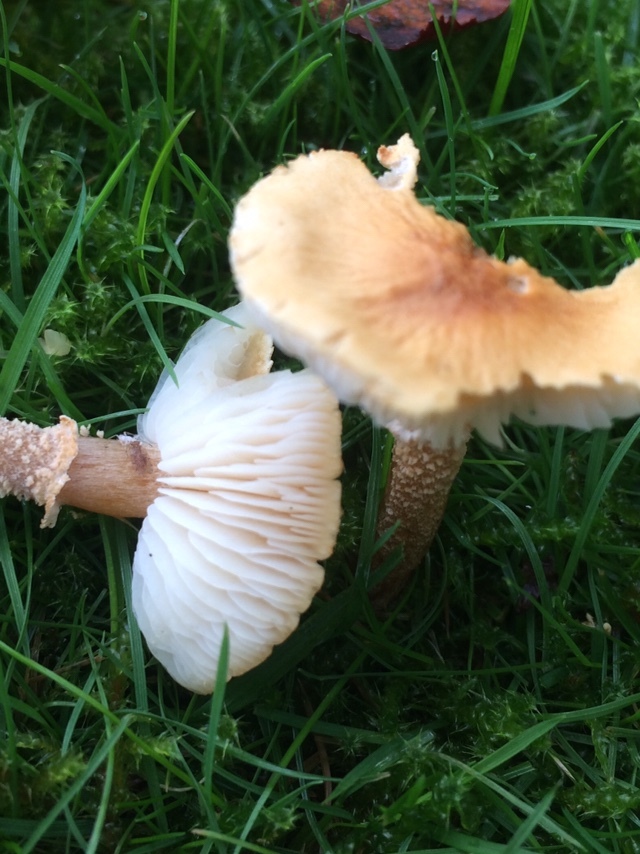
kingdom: Fungi
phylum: Basidiomycota
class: Agaricomycetes
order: Agaricales
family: Tricholomataceae
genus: Cystoderma
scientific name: Cystoderma amianthinum
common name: Earthy powdercap
